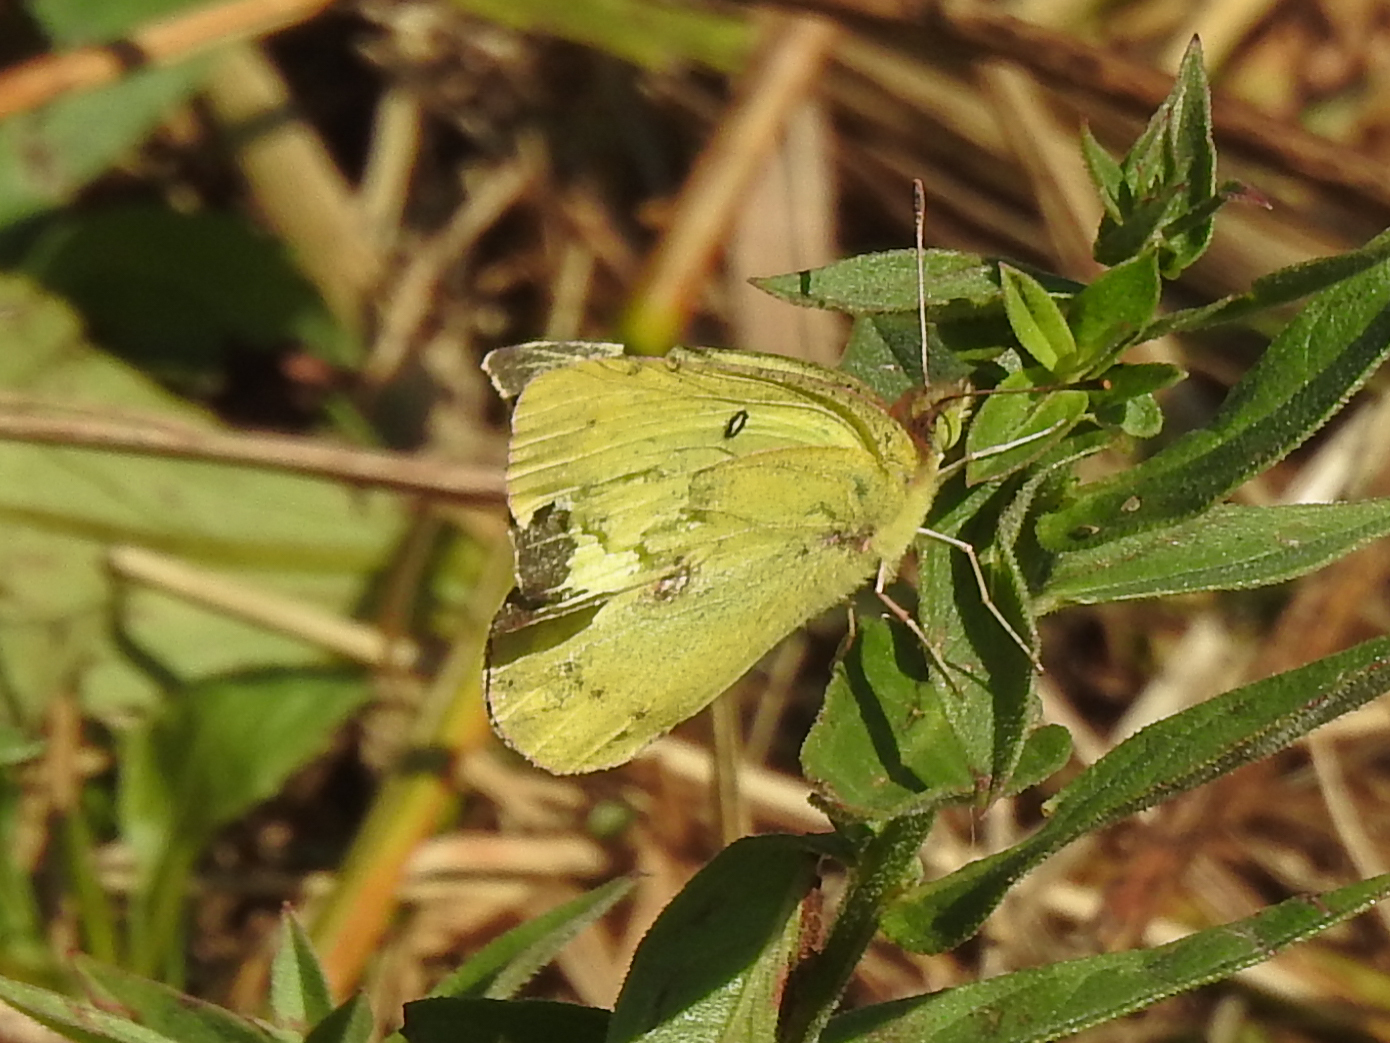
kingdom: Animalia
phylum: Arthropoda
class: Insecta
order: Lepidoptera
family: Pieridae
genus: Colias
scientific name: Colias philodice
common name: Clouded sulphur
